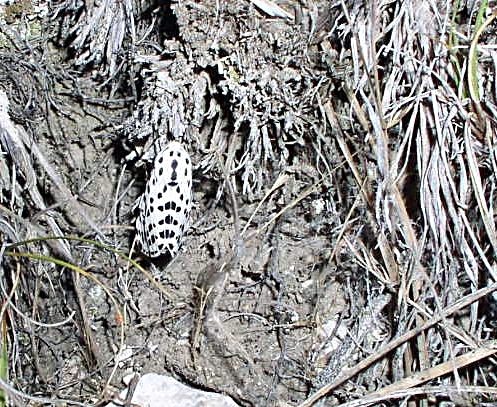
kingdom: Animalia
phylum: Arthropoda
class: Insecta
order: Lepidoptera
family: Erebidae
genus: Hypercompe
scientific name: Hypercompe permaculata
